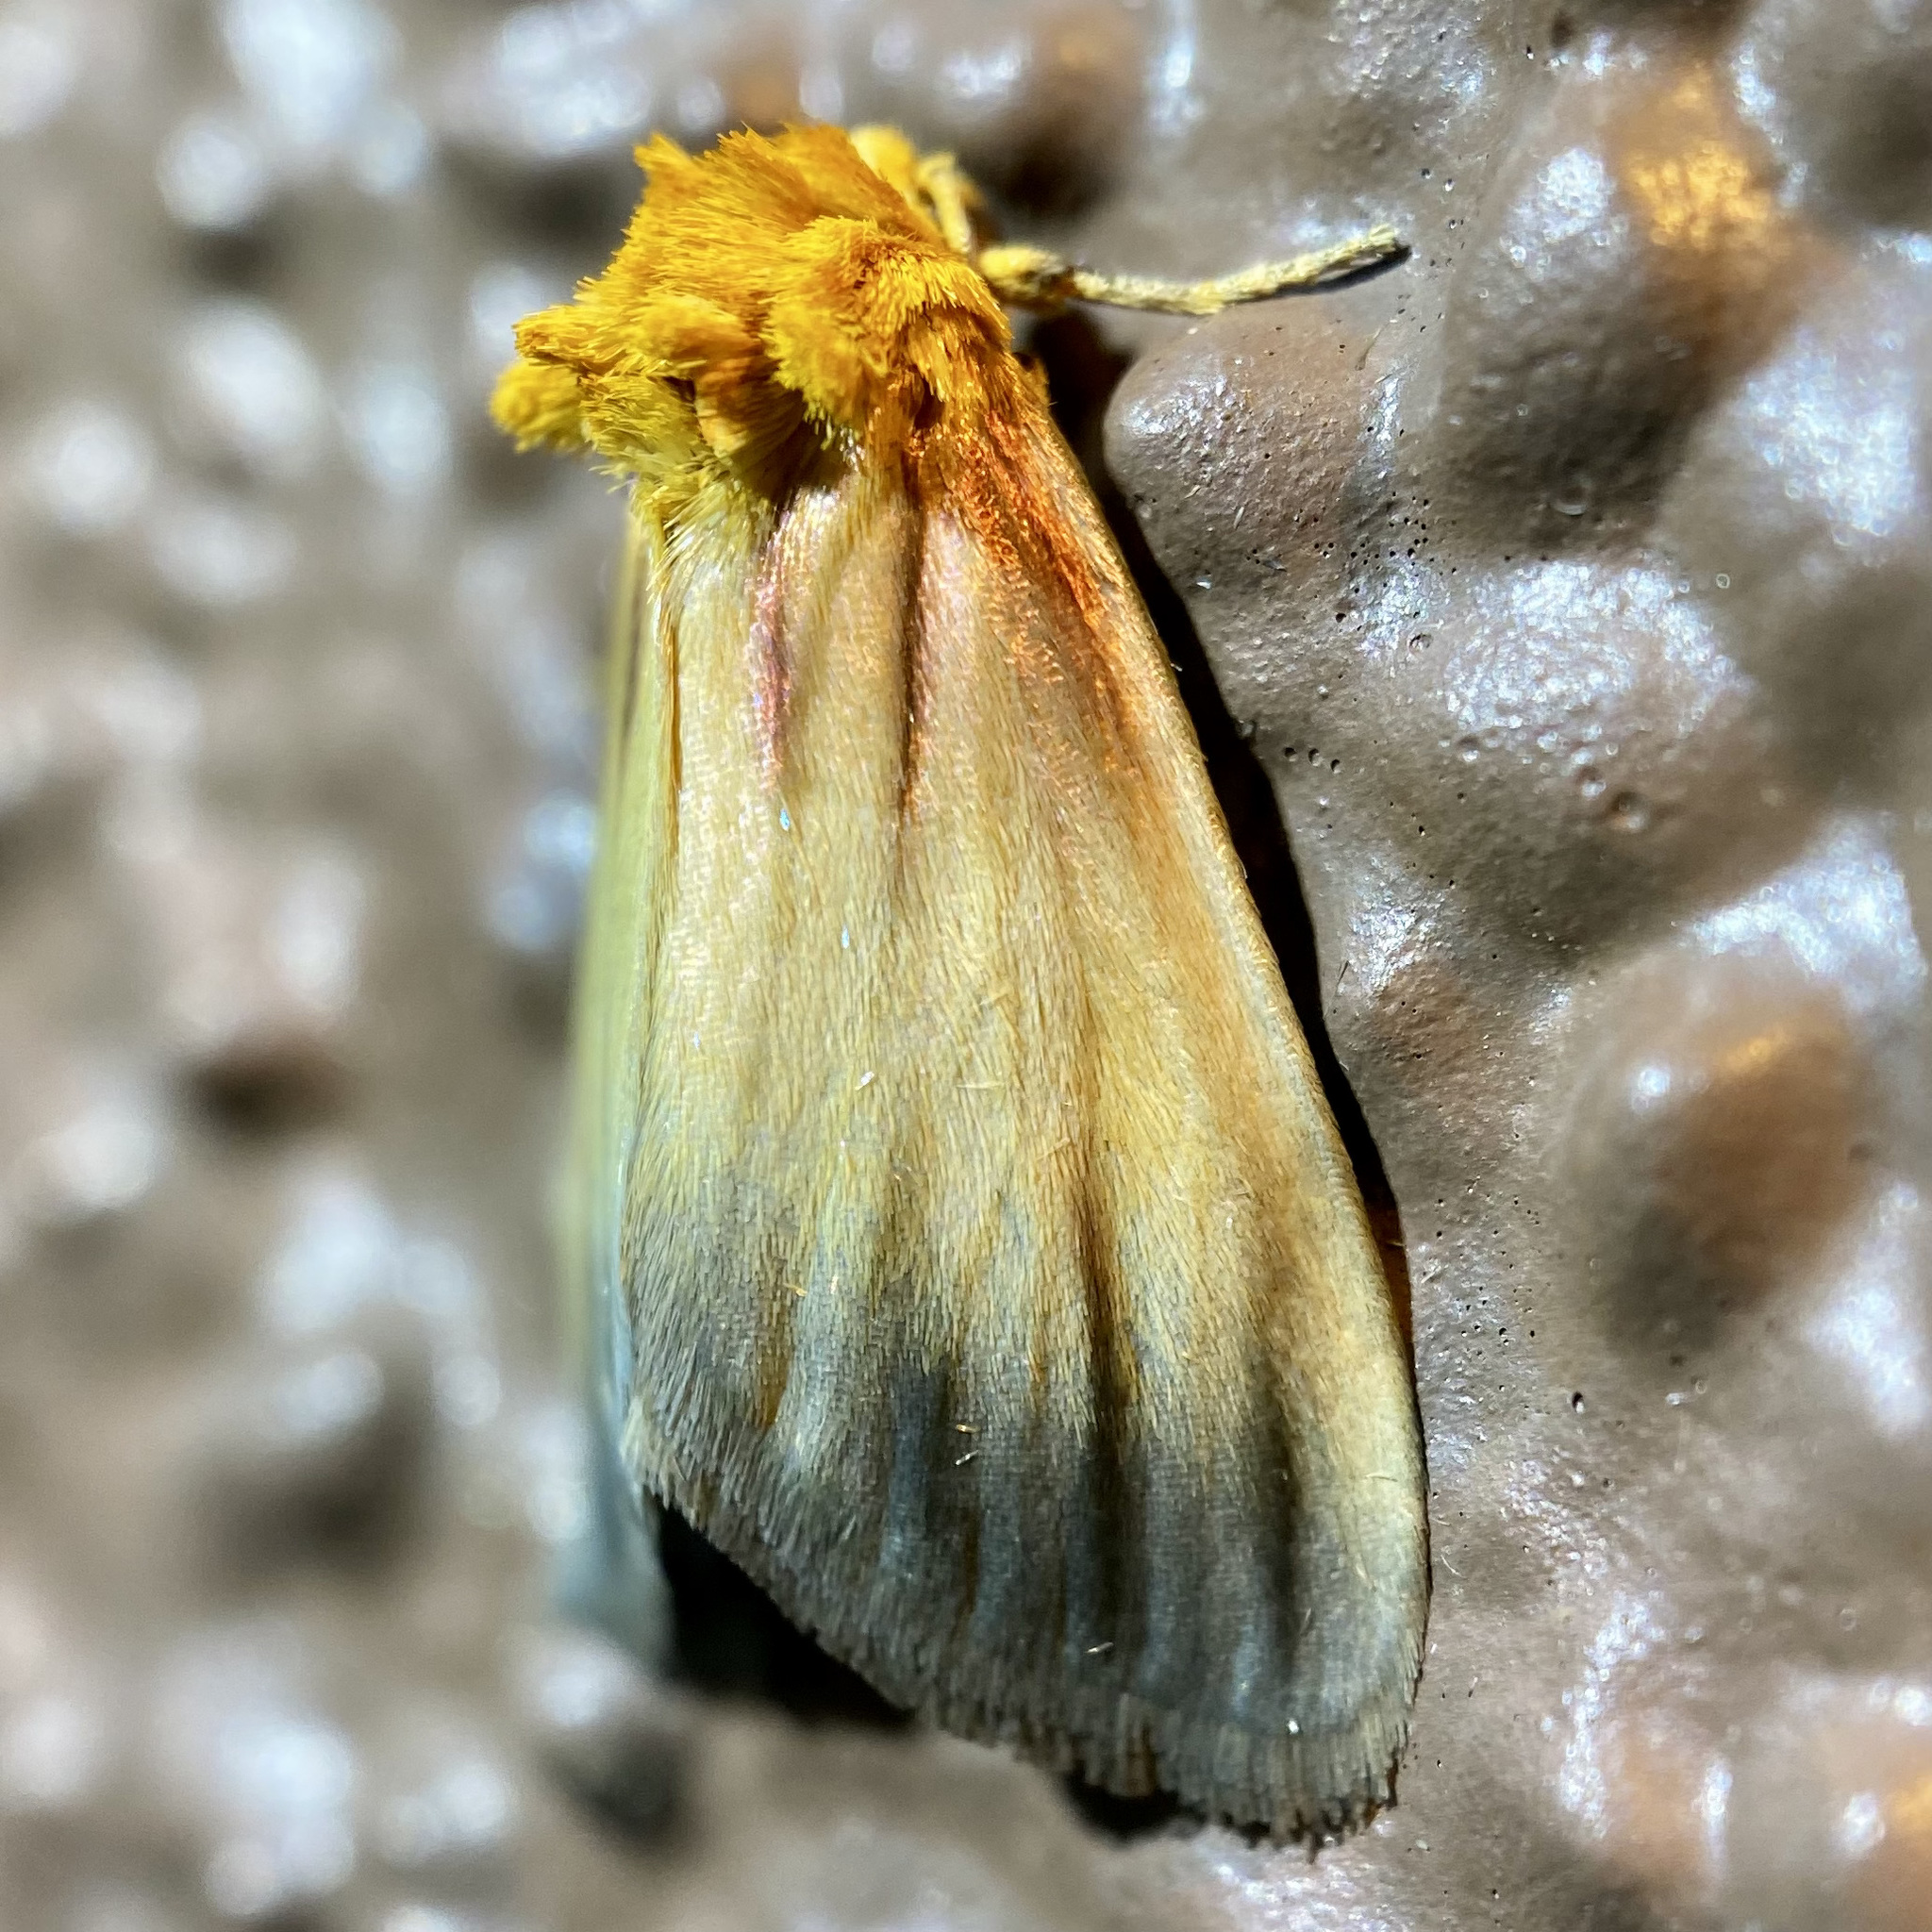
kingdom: Animalia
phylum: Arthropoda
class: Insecta
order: Lepidoptera
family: Noctuidae
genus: Antaplaga
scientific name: Antaplaga plesioglauca
